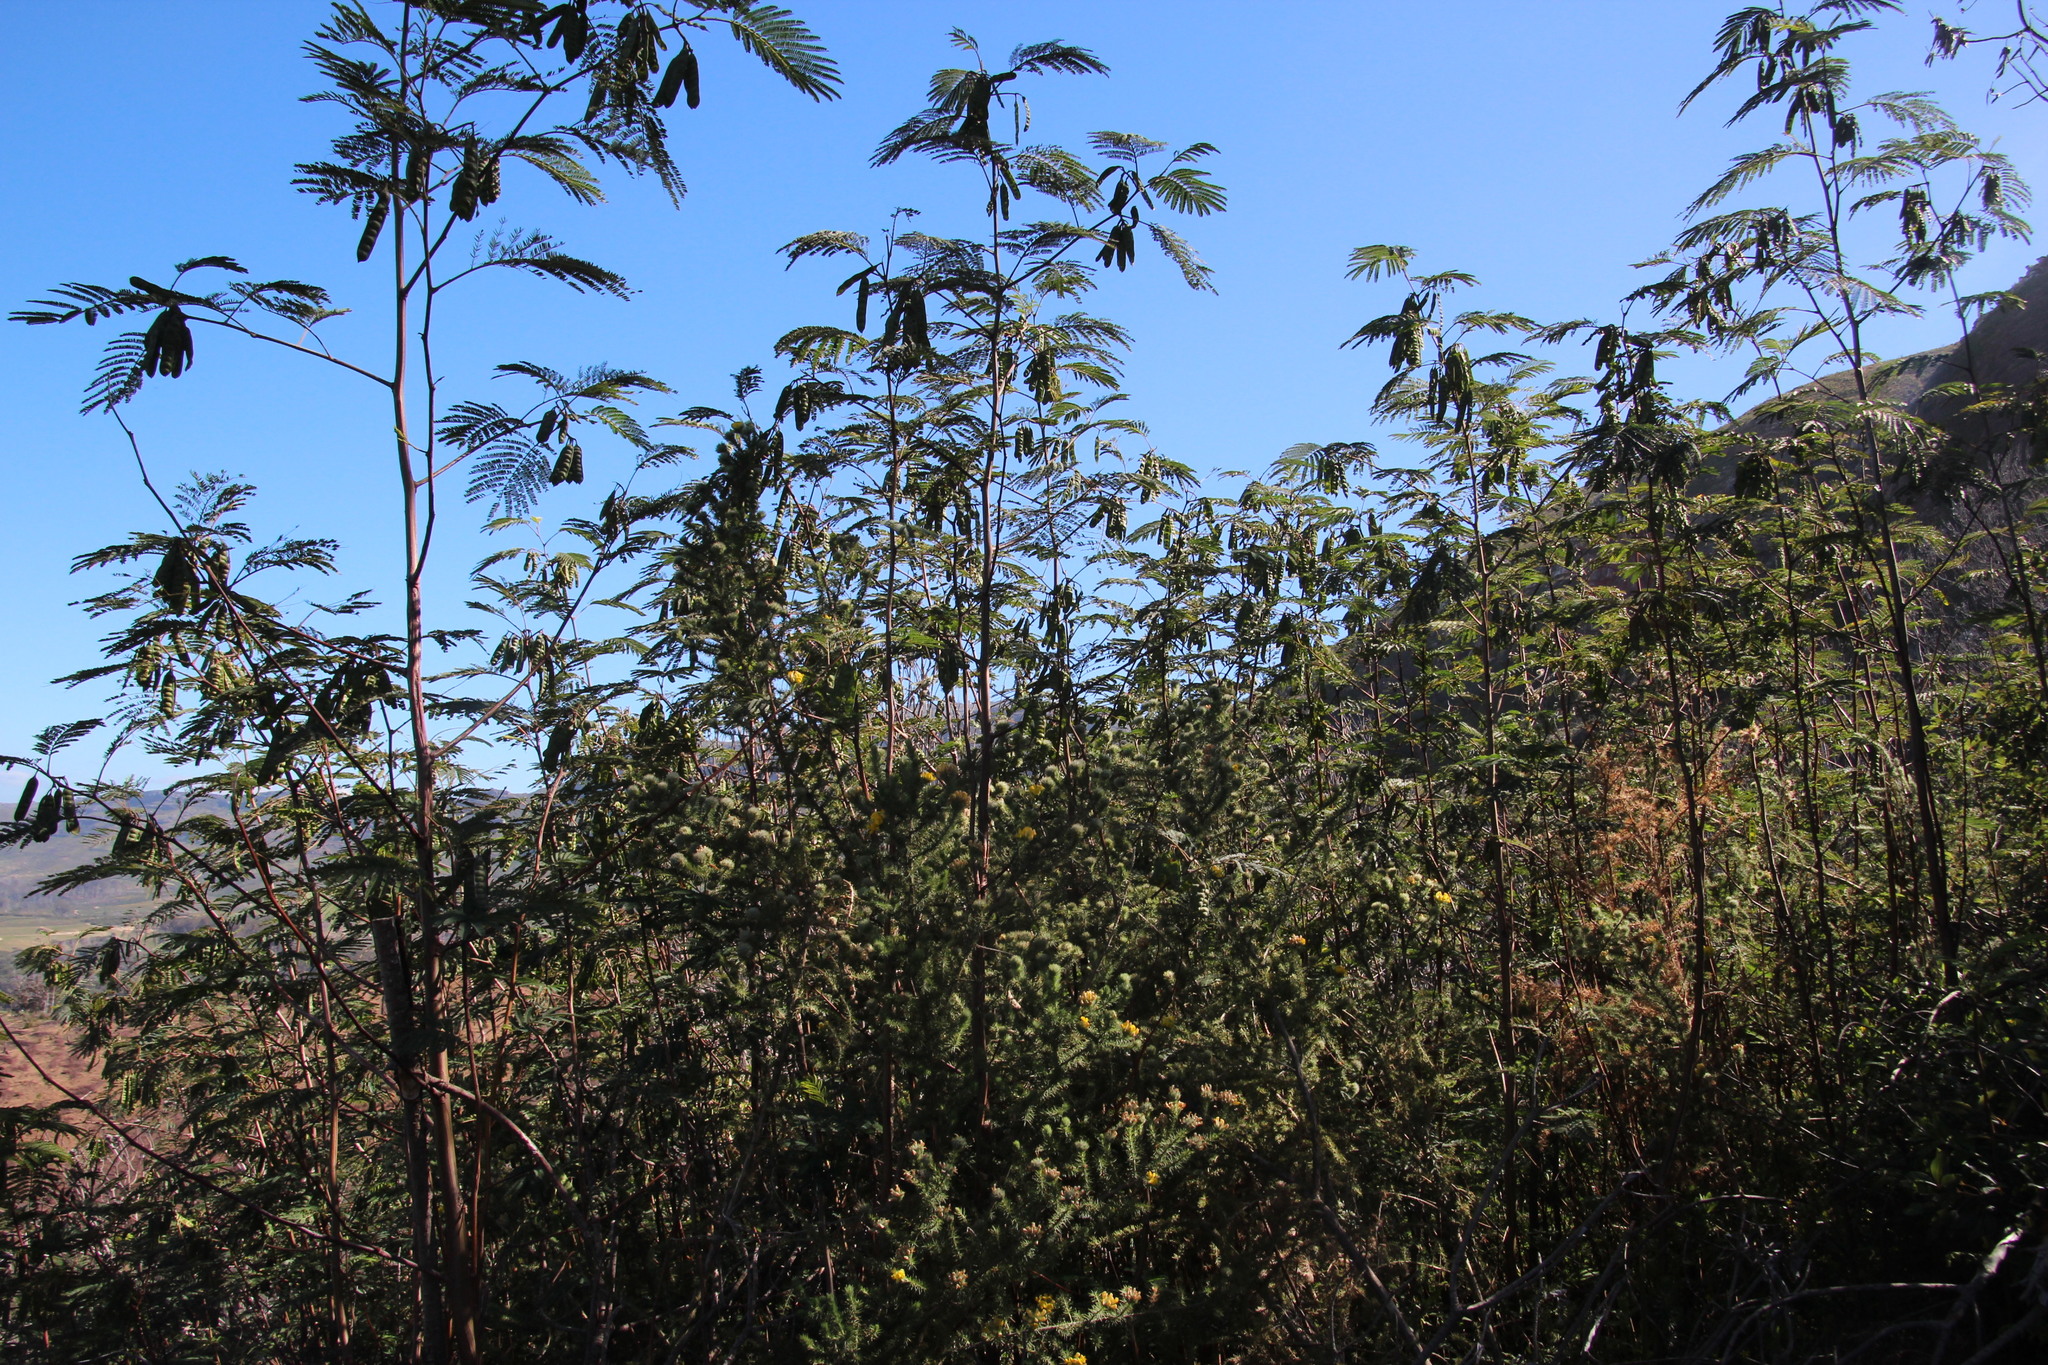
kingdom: Plantae
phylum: Tracheophyta
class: Magnoliopsida
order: Fabales
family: Fabaceae
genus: Paraserianthes
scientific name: Paraserianthes lophantha
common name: Plume albizia
